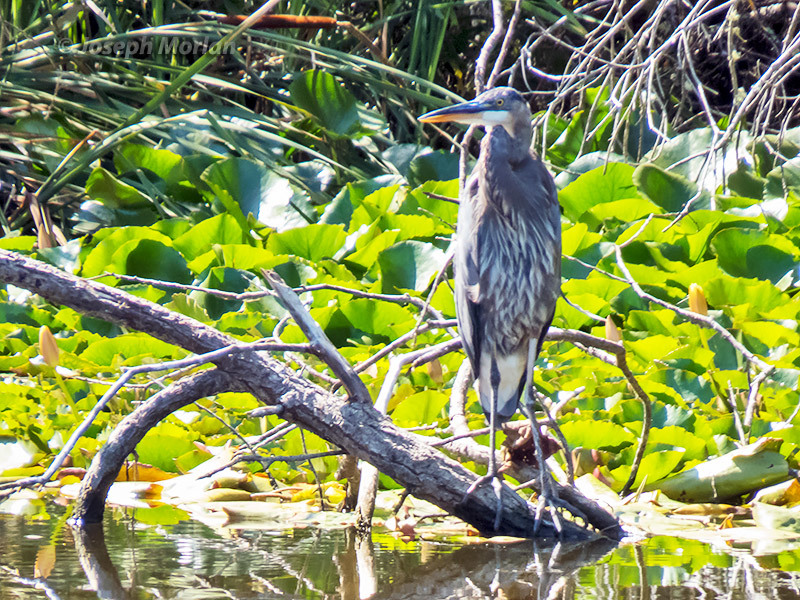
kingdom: Animalia
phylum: Chordata
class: Aves
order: Pelecaniformes
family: Ardeidae
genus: Ardea
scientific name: Ardea herodias
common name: Great blue heron
